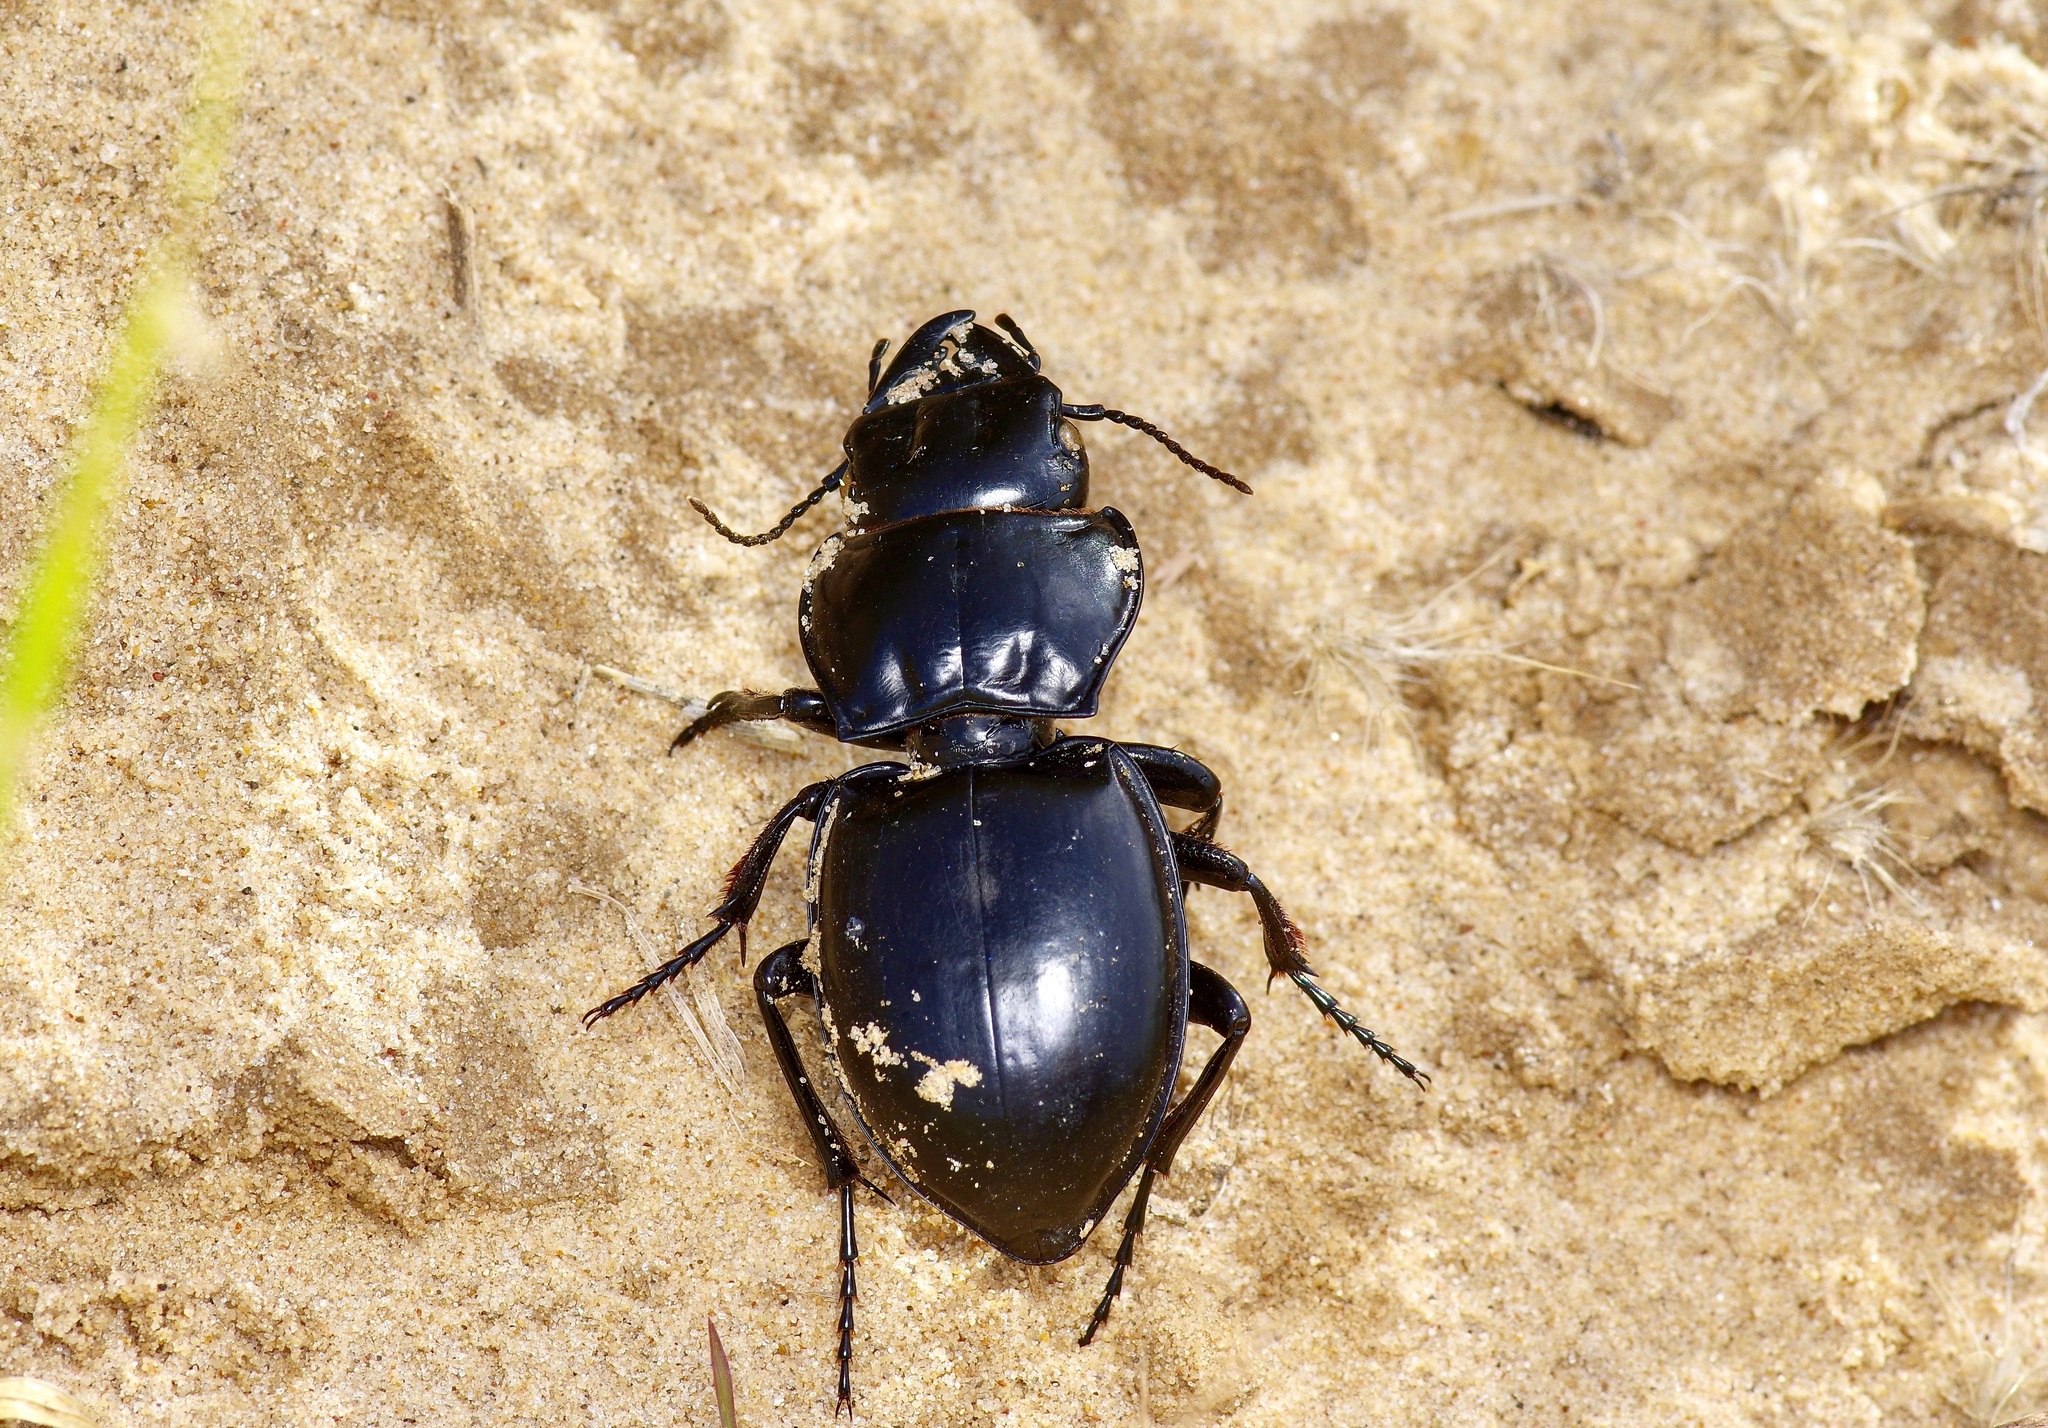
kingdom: Animalia
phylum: Arthropoda
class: Insecta
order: Coleoptera
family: Carabidae
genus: Pasimachus
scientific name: Pasimachus californicus
